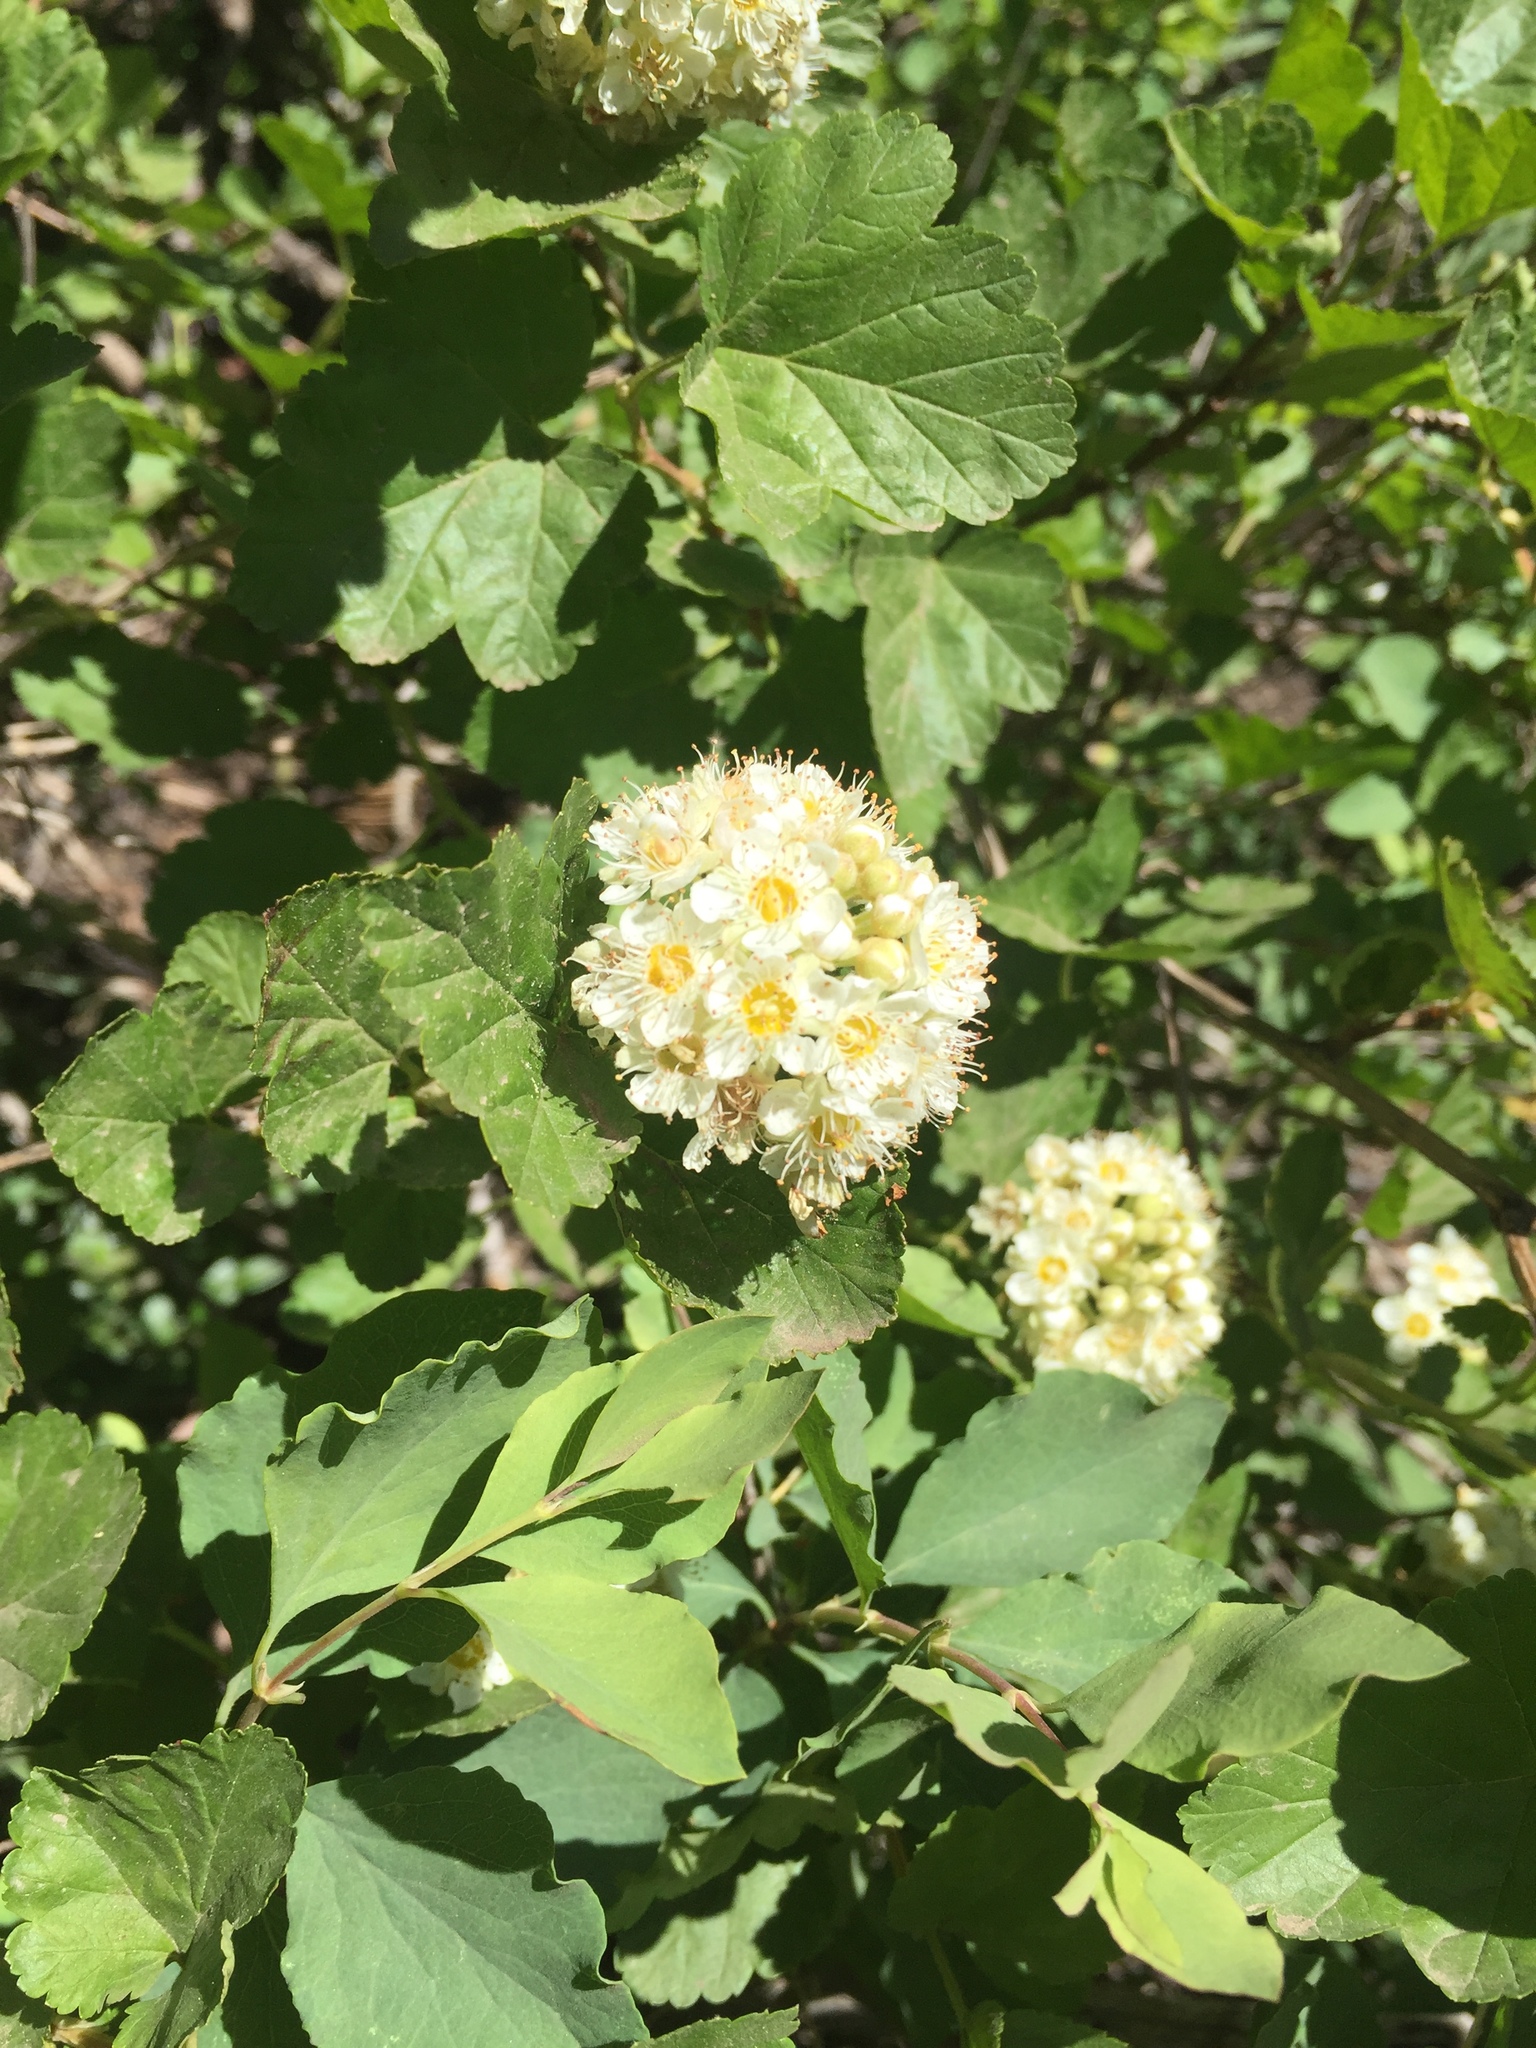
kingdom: Plantae
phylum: Tracheophyta
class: Magnoliopsida
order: Rosales
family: Rosaceae
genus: Physocarpus
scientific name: Physocarpus malvaceus
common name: Mallow ninebark
